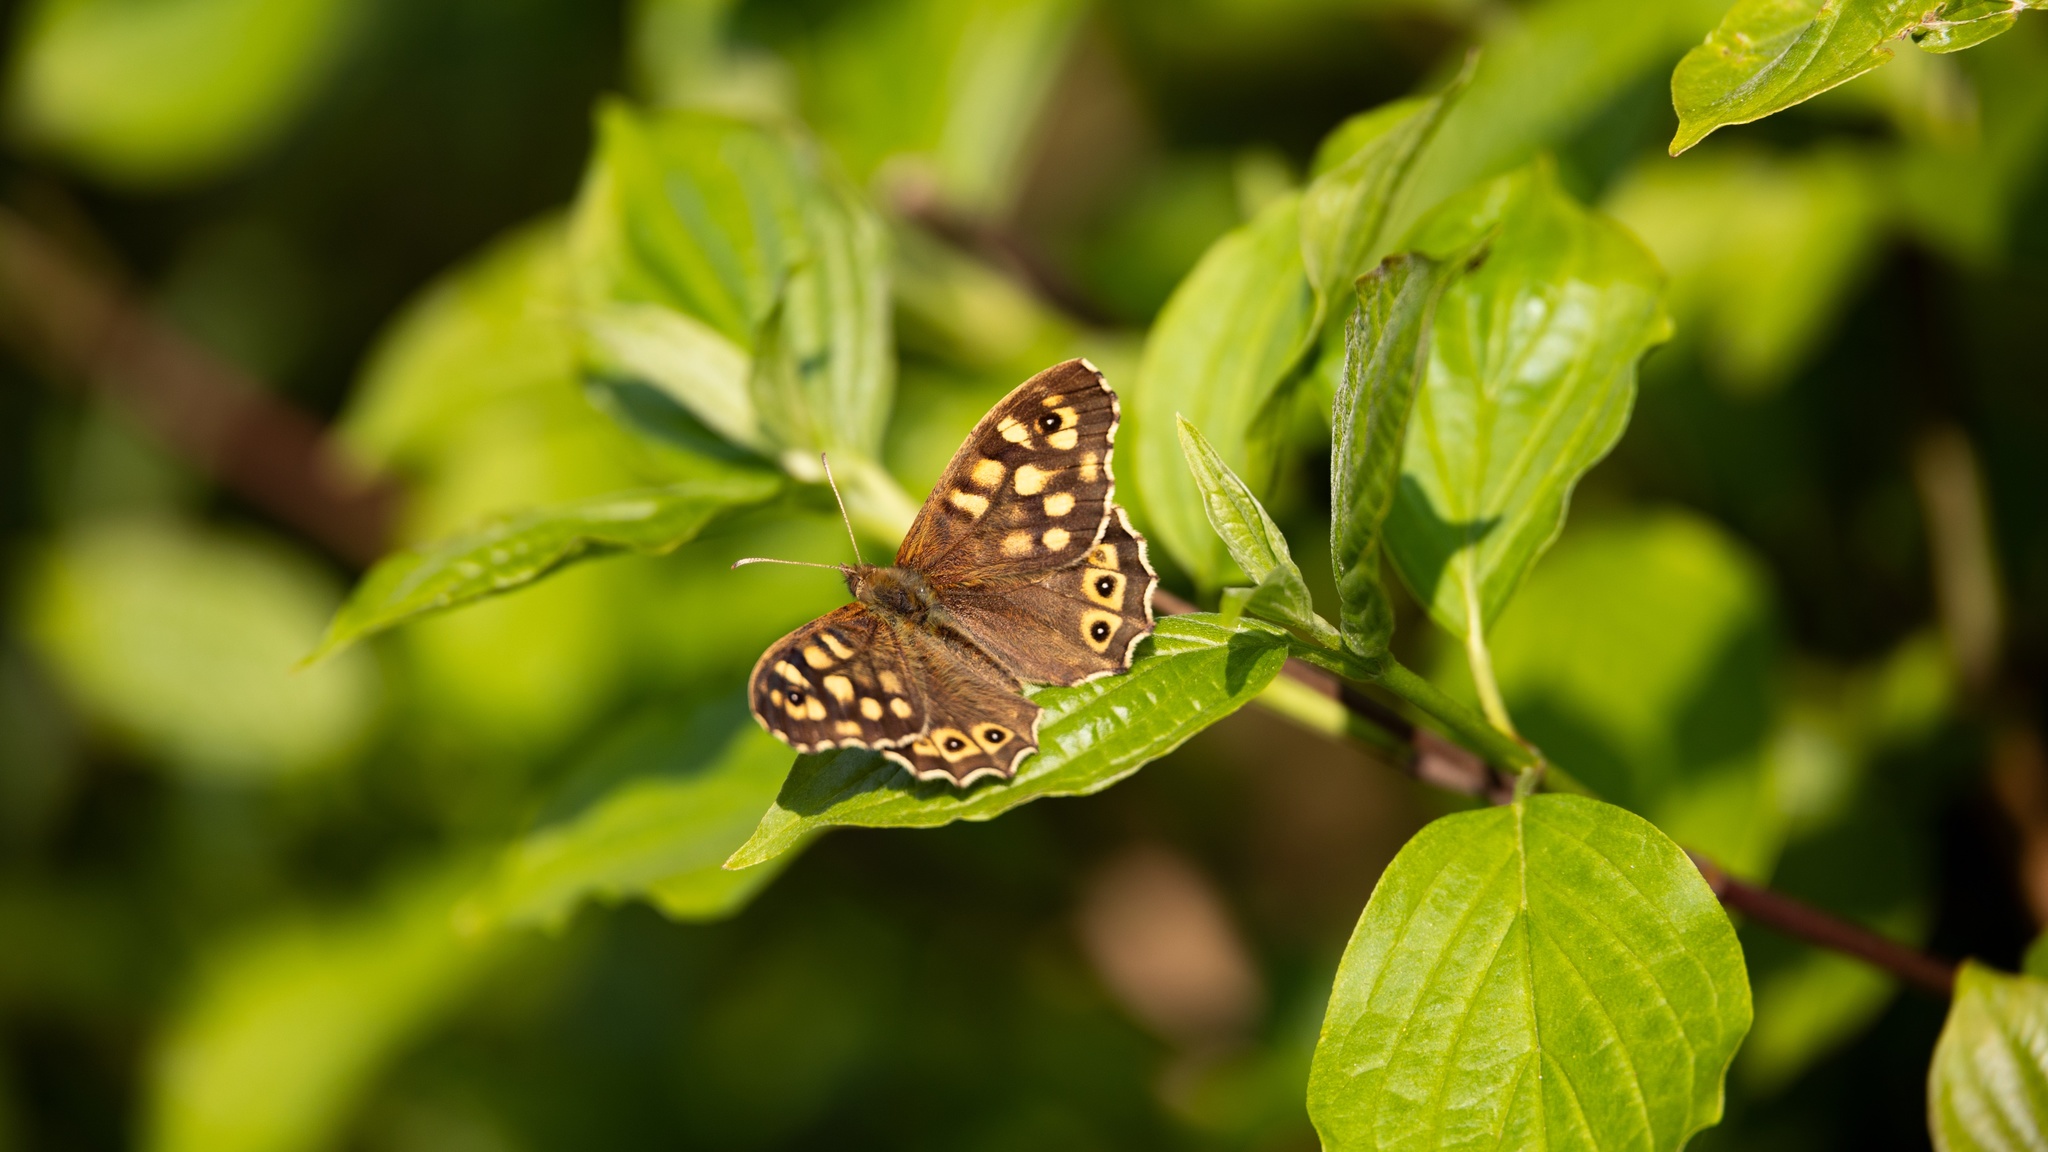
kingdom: Animalia
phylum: Arthropoda
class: Insecta
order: Lepidoptera
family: Nymphalidae
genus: Pararge
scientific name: Pararge aegeria
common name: Speckled wood
